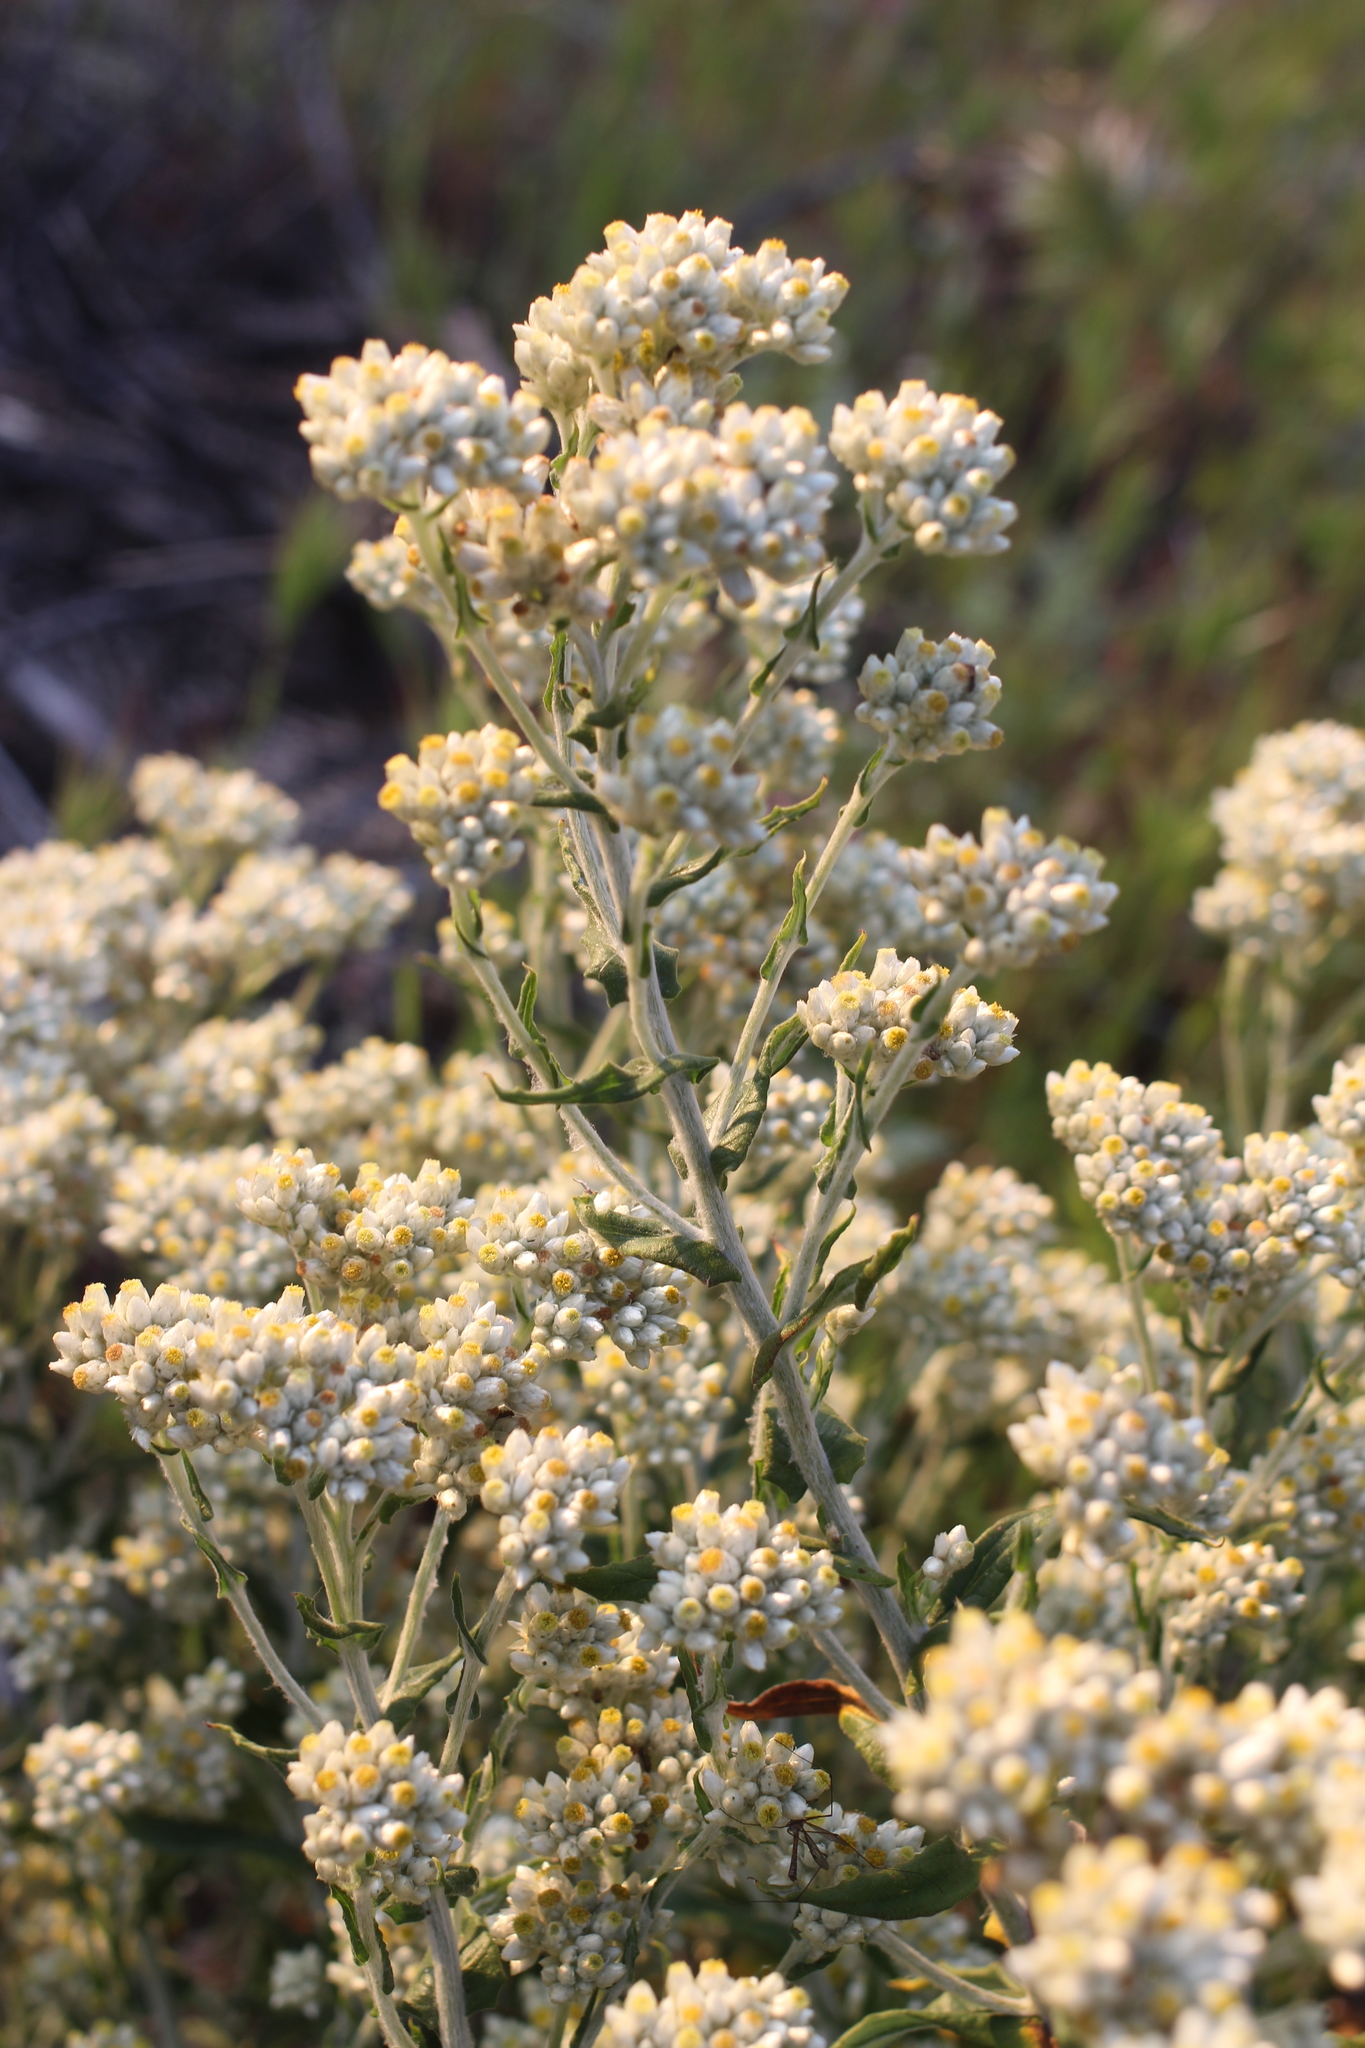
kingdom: Plantae
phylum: Tracheophyta
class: Magnoliopsida
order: Asterales
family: Asteraceae
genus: Pseudognaphalium
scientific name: Pseudognaphalium biolettii
